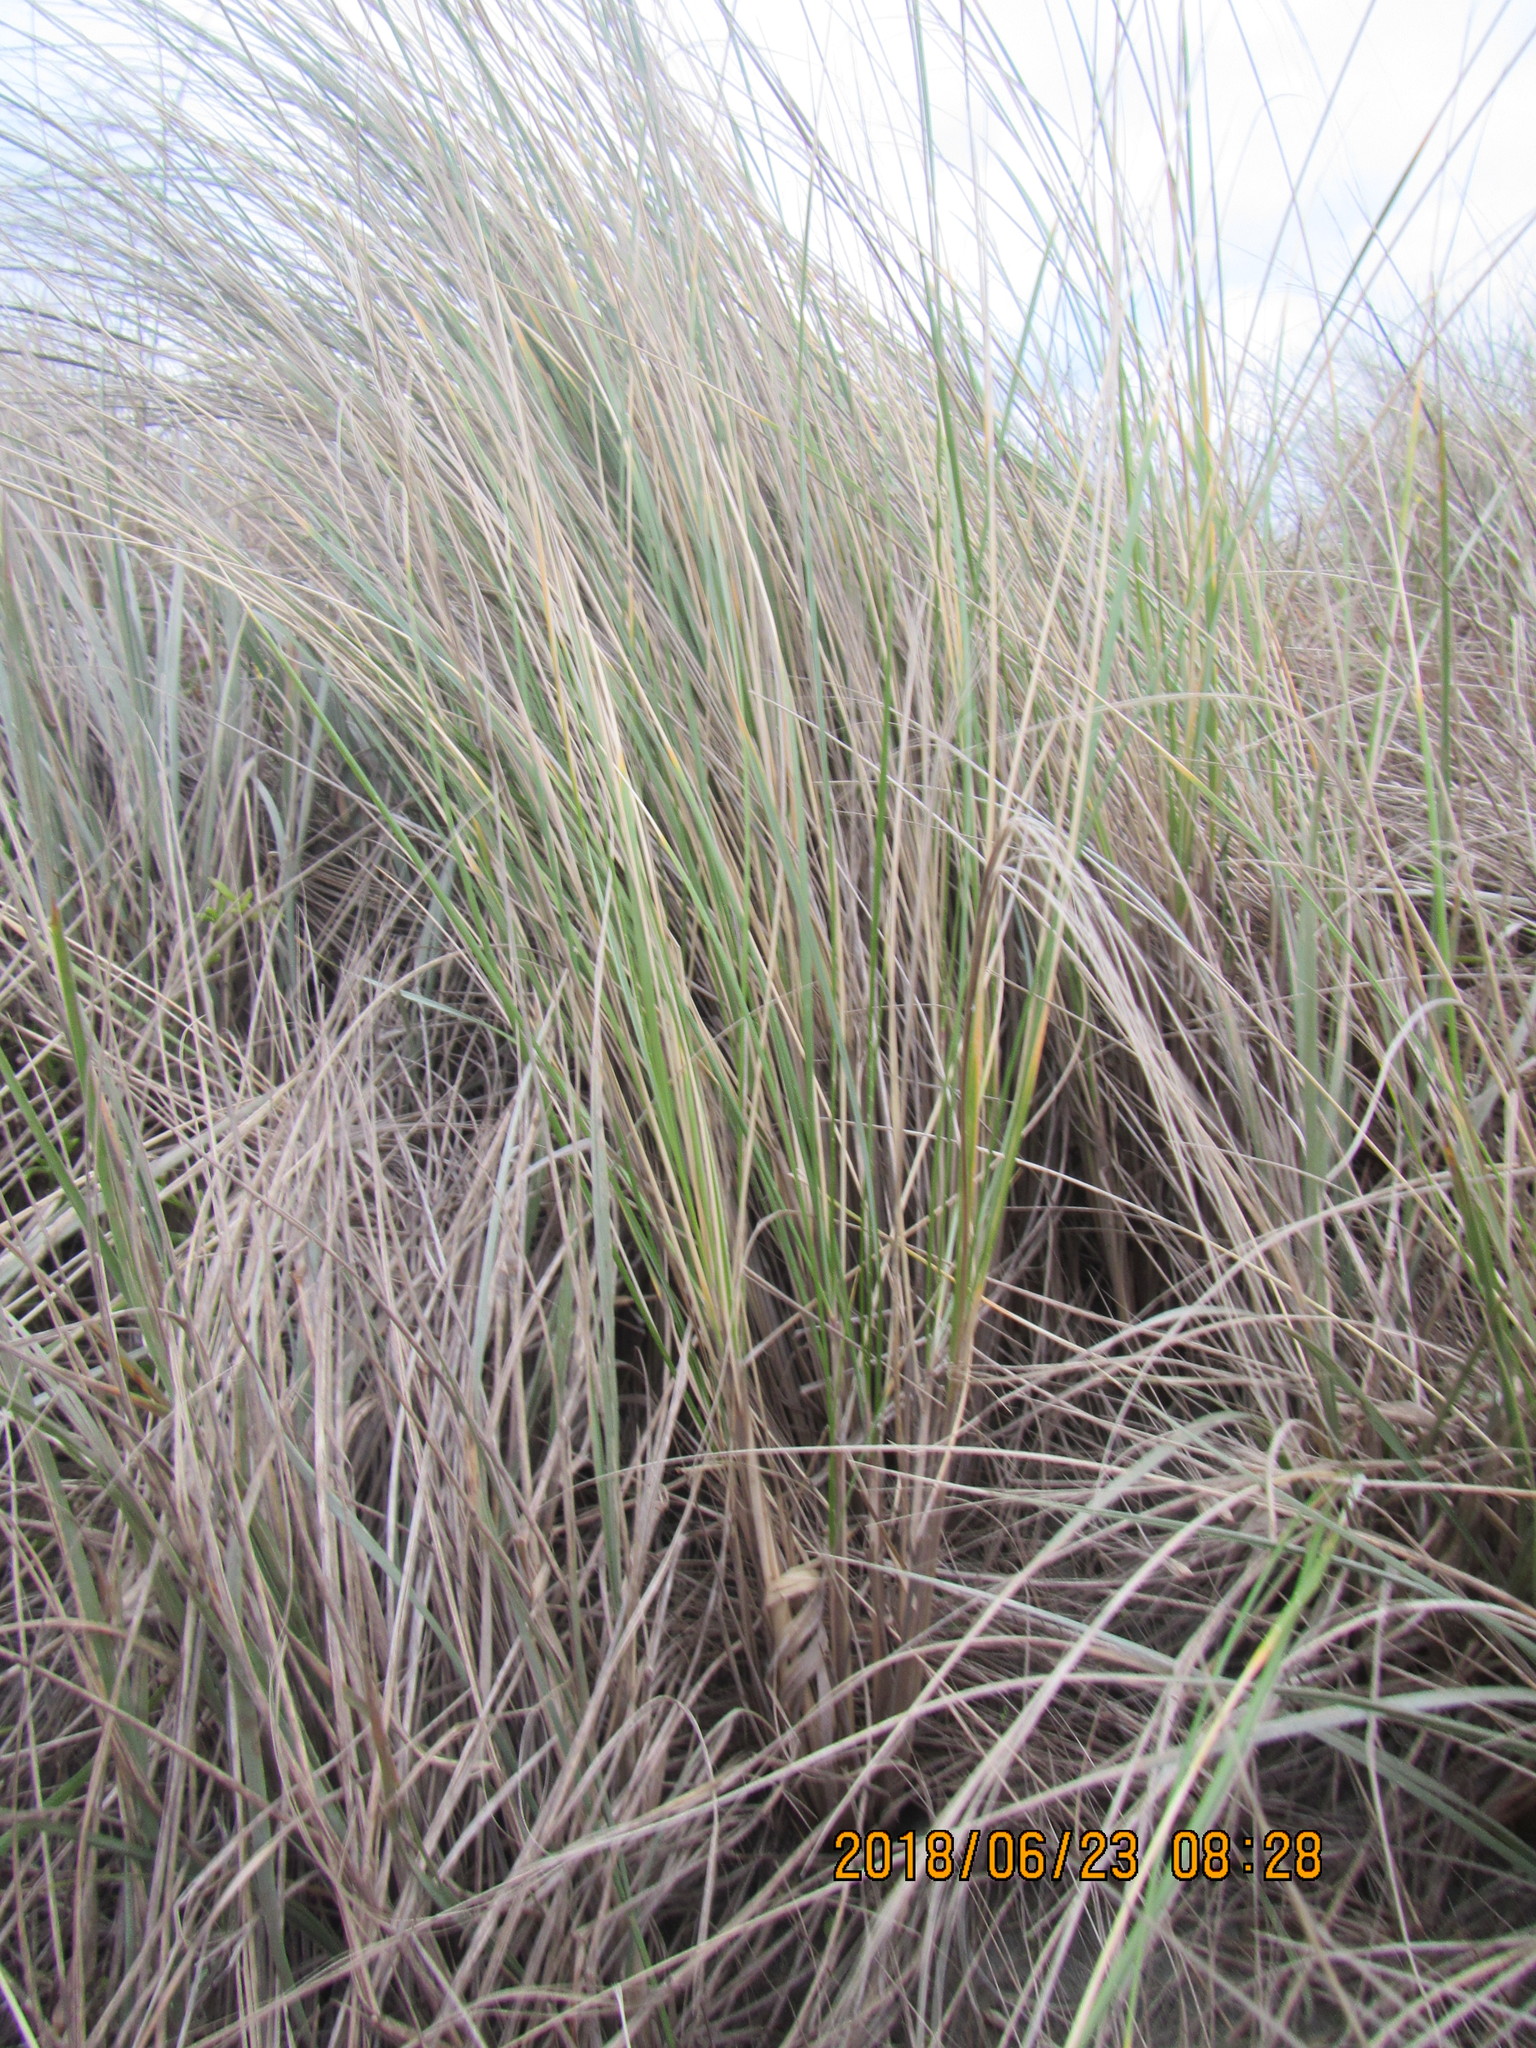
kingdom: Plantae
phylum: Tracheophyta
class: Liliopsida
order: Poales
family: Poaceae
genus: Calamagrostis
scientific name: Calamagrostis arenaria
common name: European beachgrass
